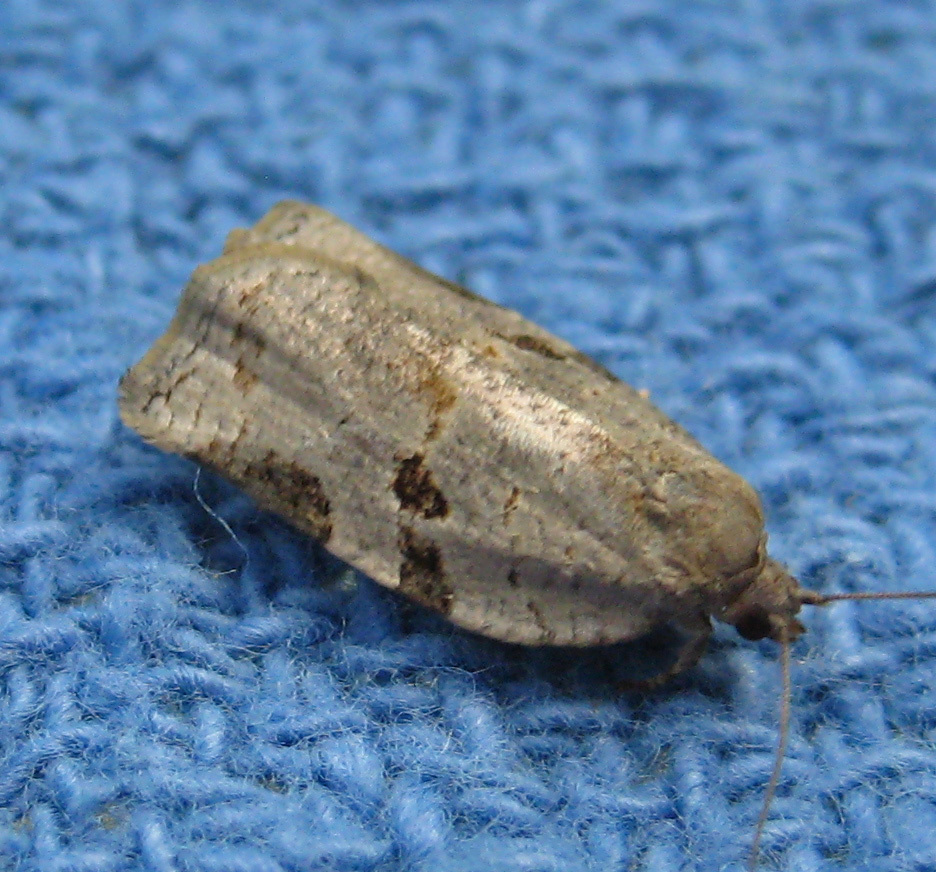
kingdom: Animalia
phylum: Arthropoda
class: Insecta
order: Lepidoptera
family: Tortricidae
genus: Archips
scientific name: Archips grisea
